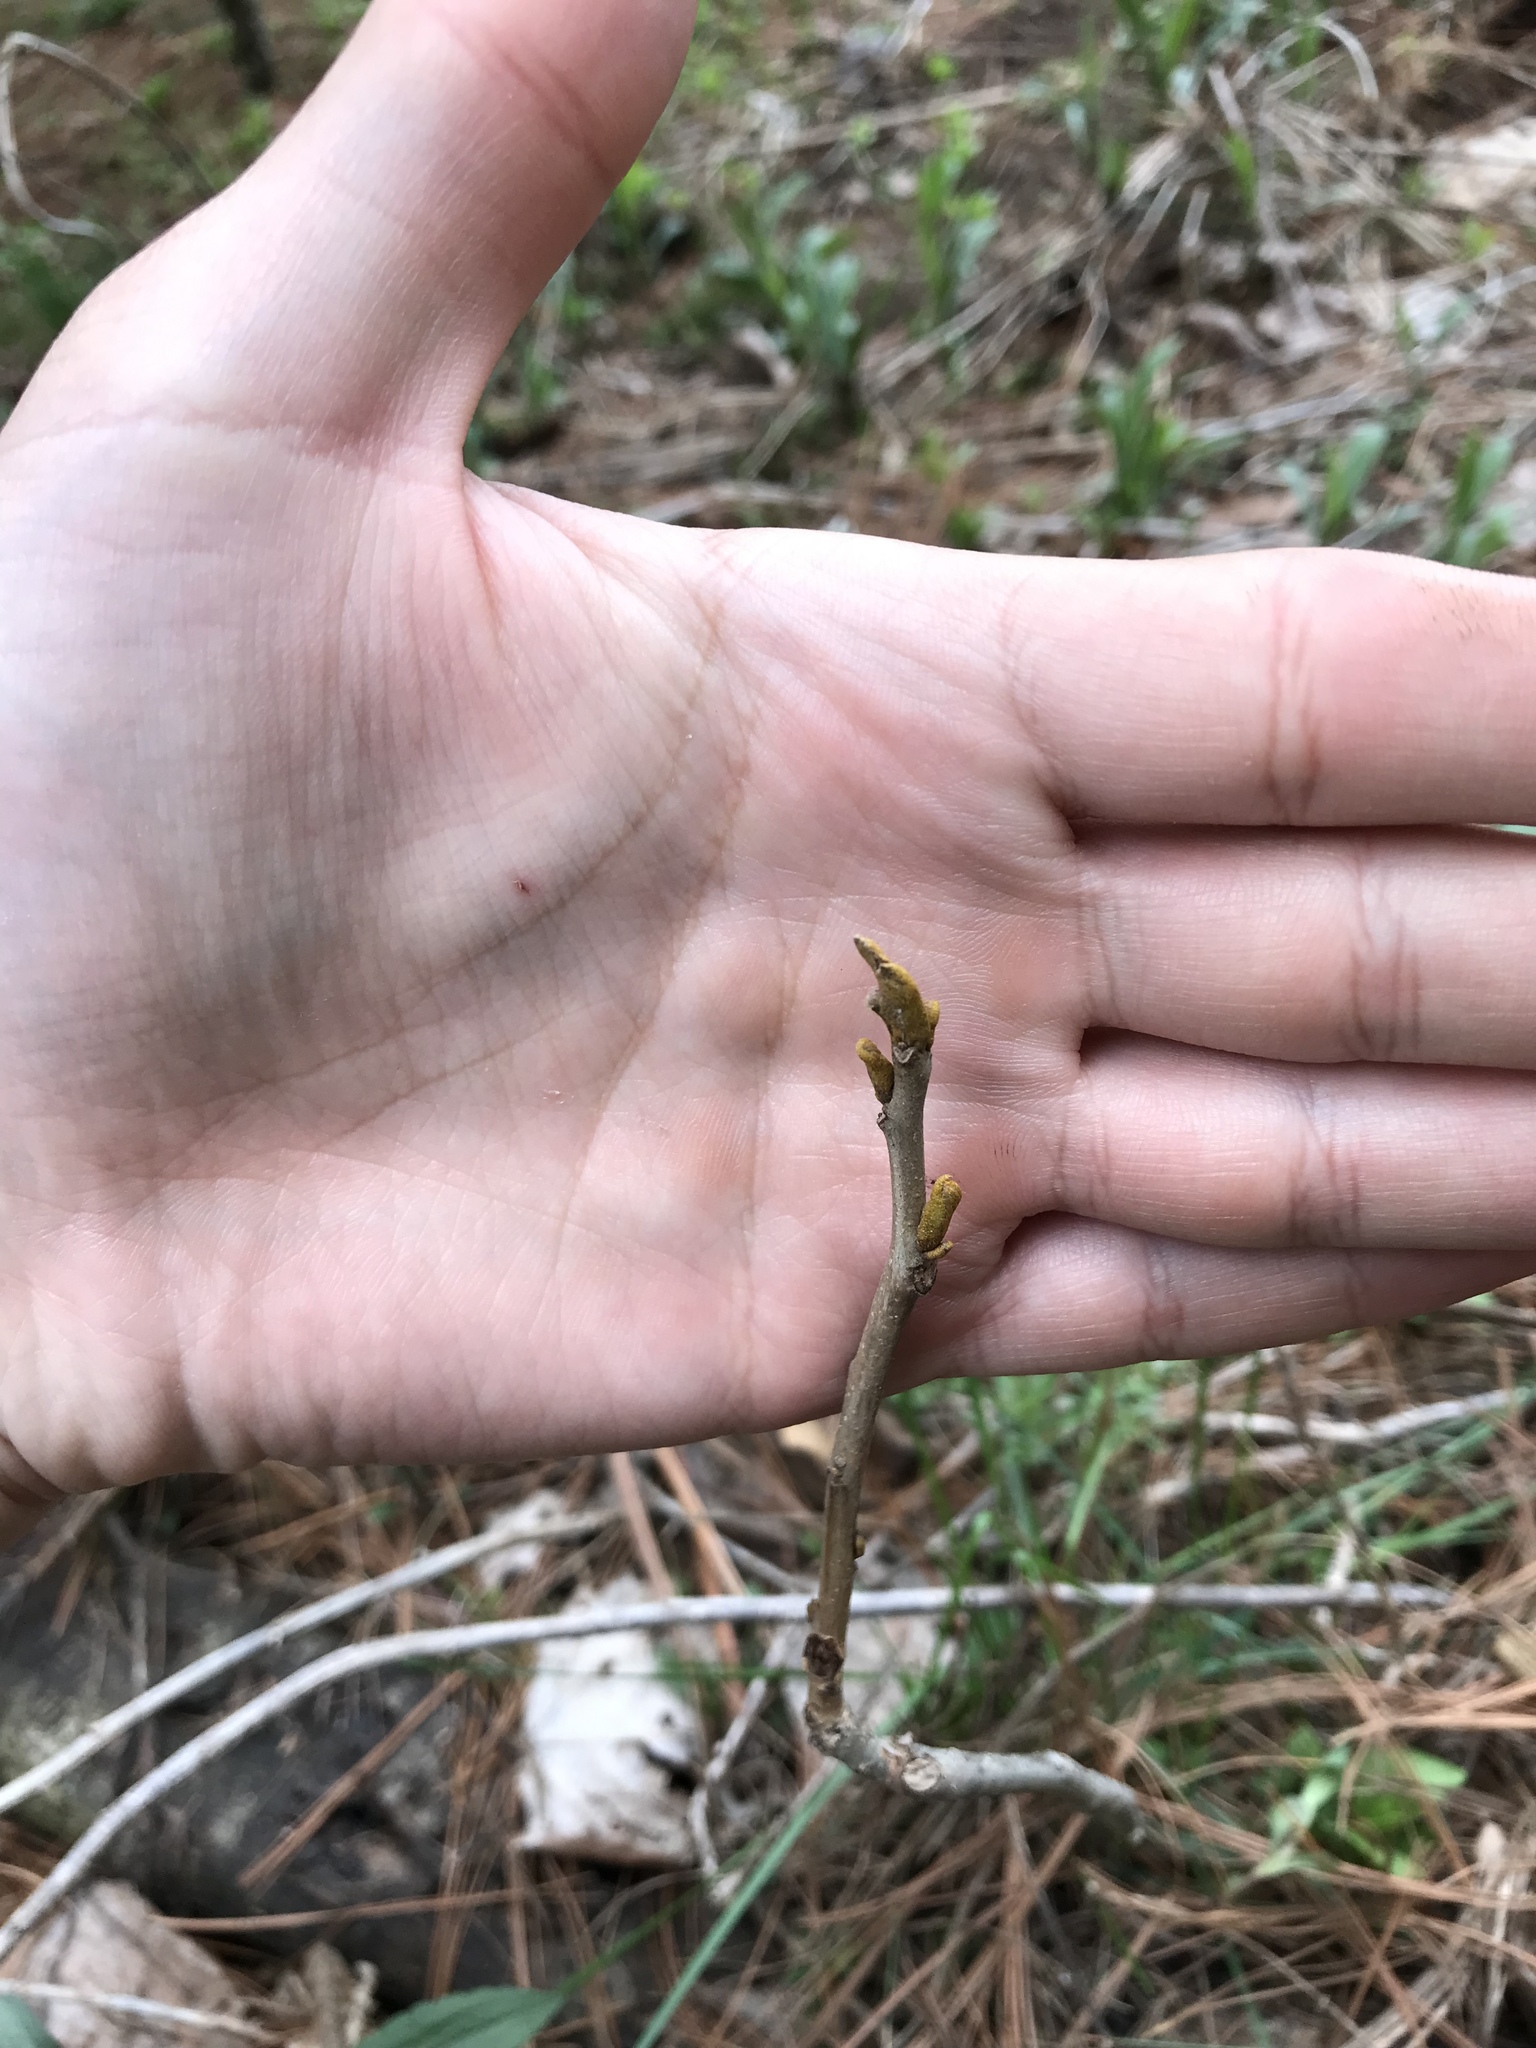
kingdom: Plantae
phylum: Tracheophyta
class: Magnoliopsida
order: Fagales
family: Juglandaceae
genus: Carya
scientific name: Carya cordiformis
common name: Bitternut hickory
